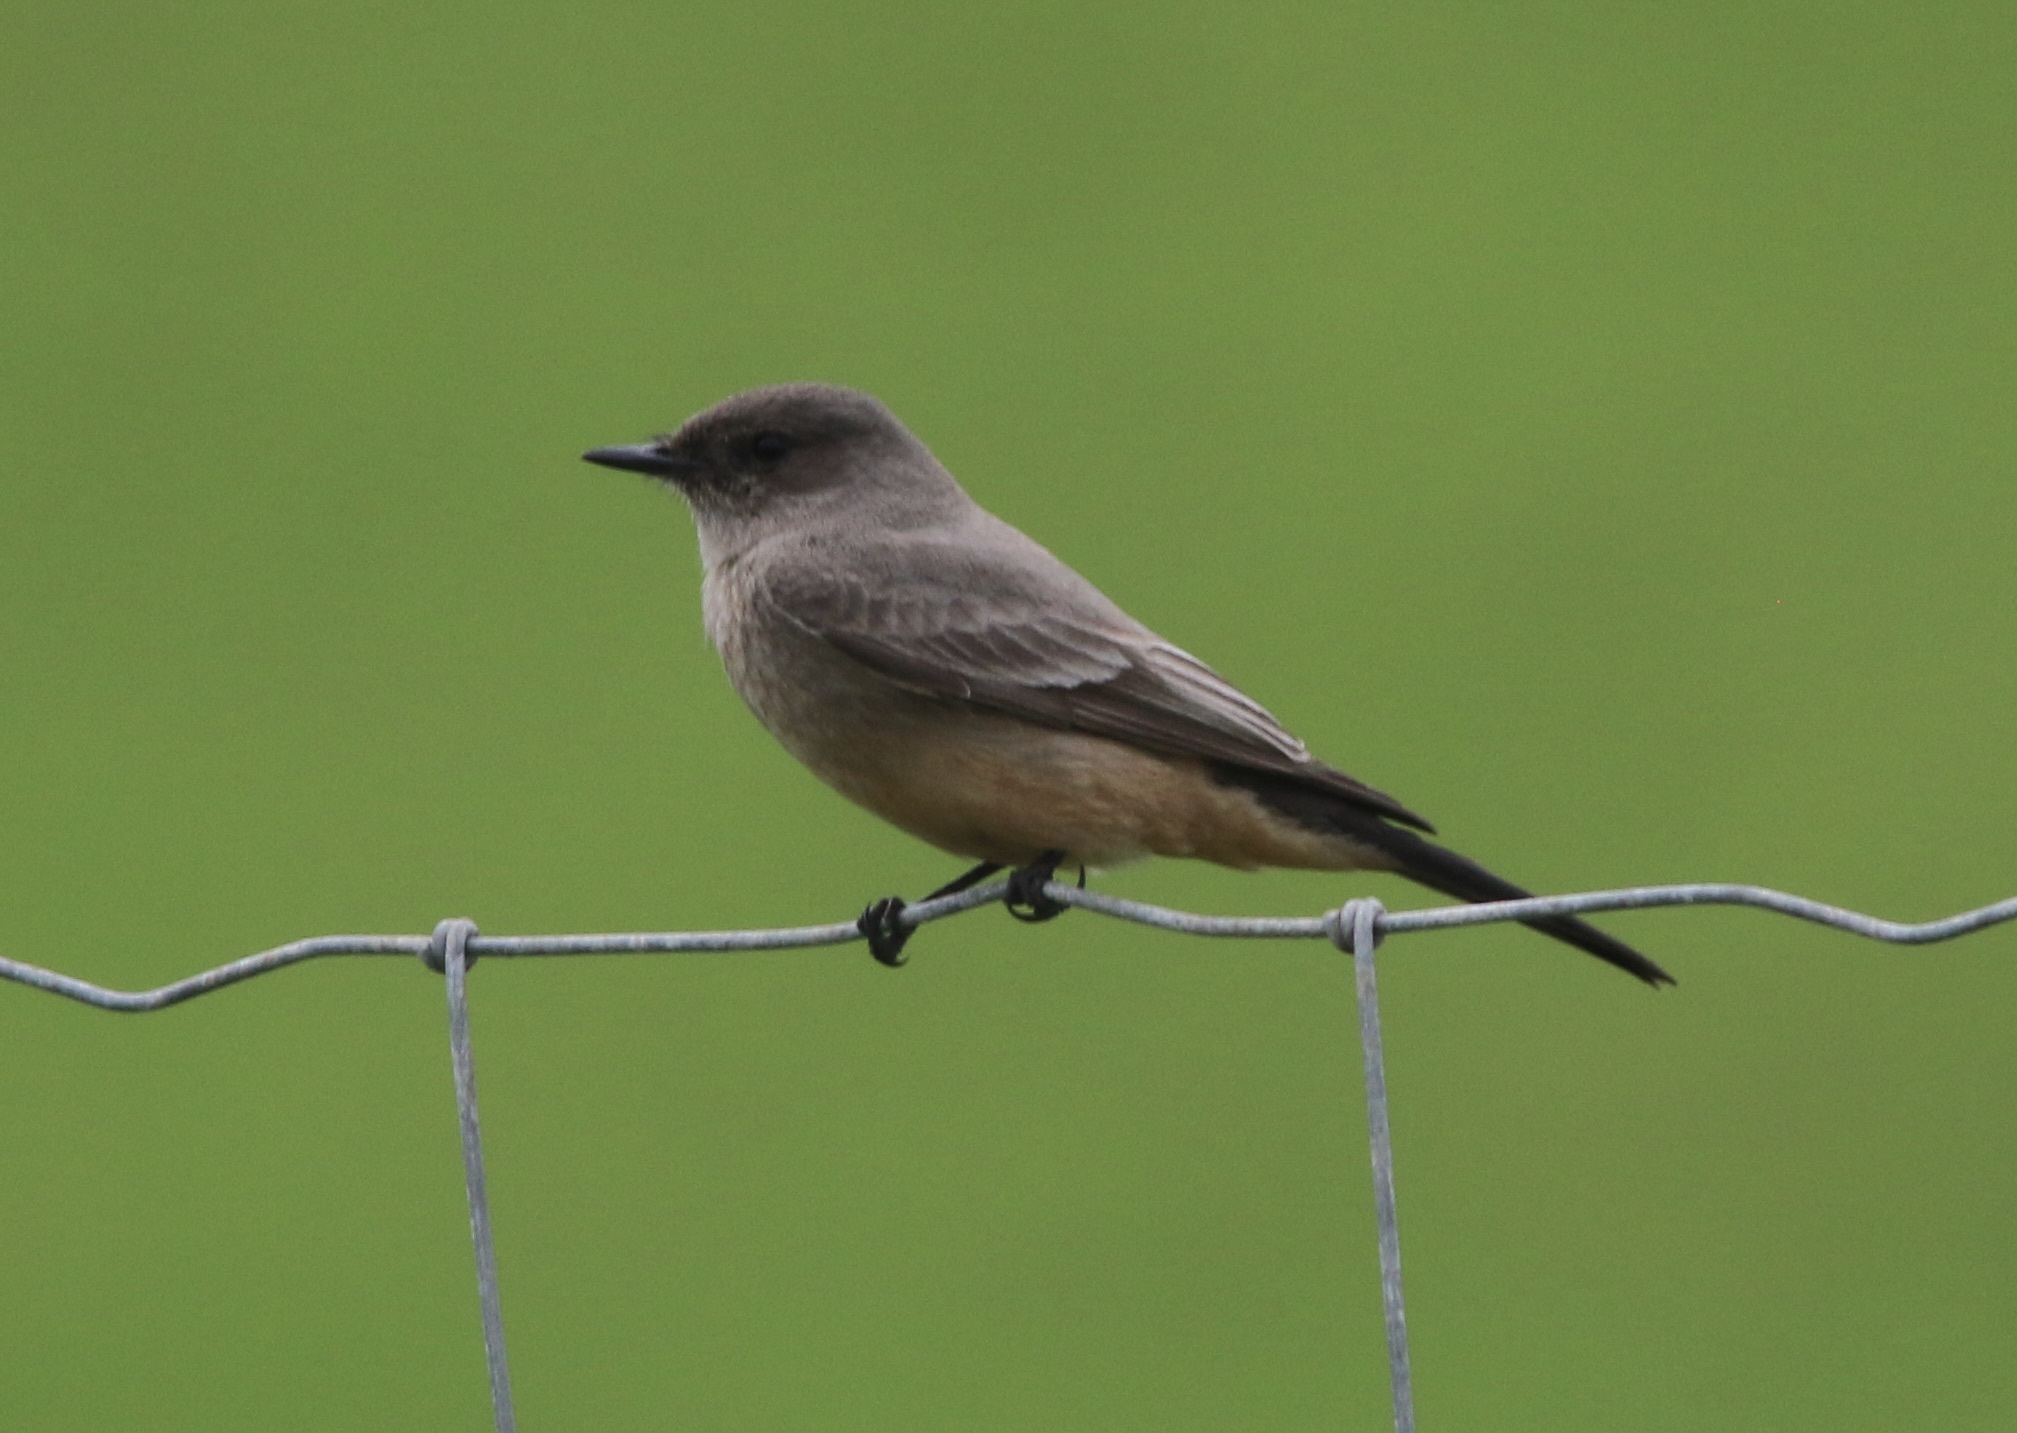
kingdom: Animalia
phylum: Chordata
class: Aves
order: Passeriformes
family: Tyrannidae
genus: Sayornis
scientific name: Sayornis saya
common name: Say's phoebe
